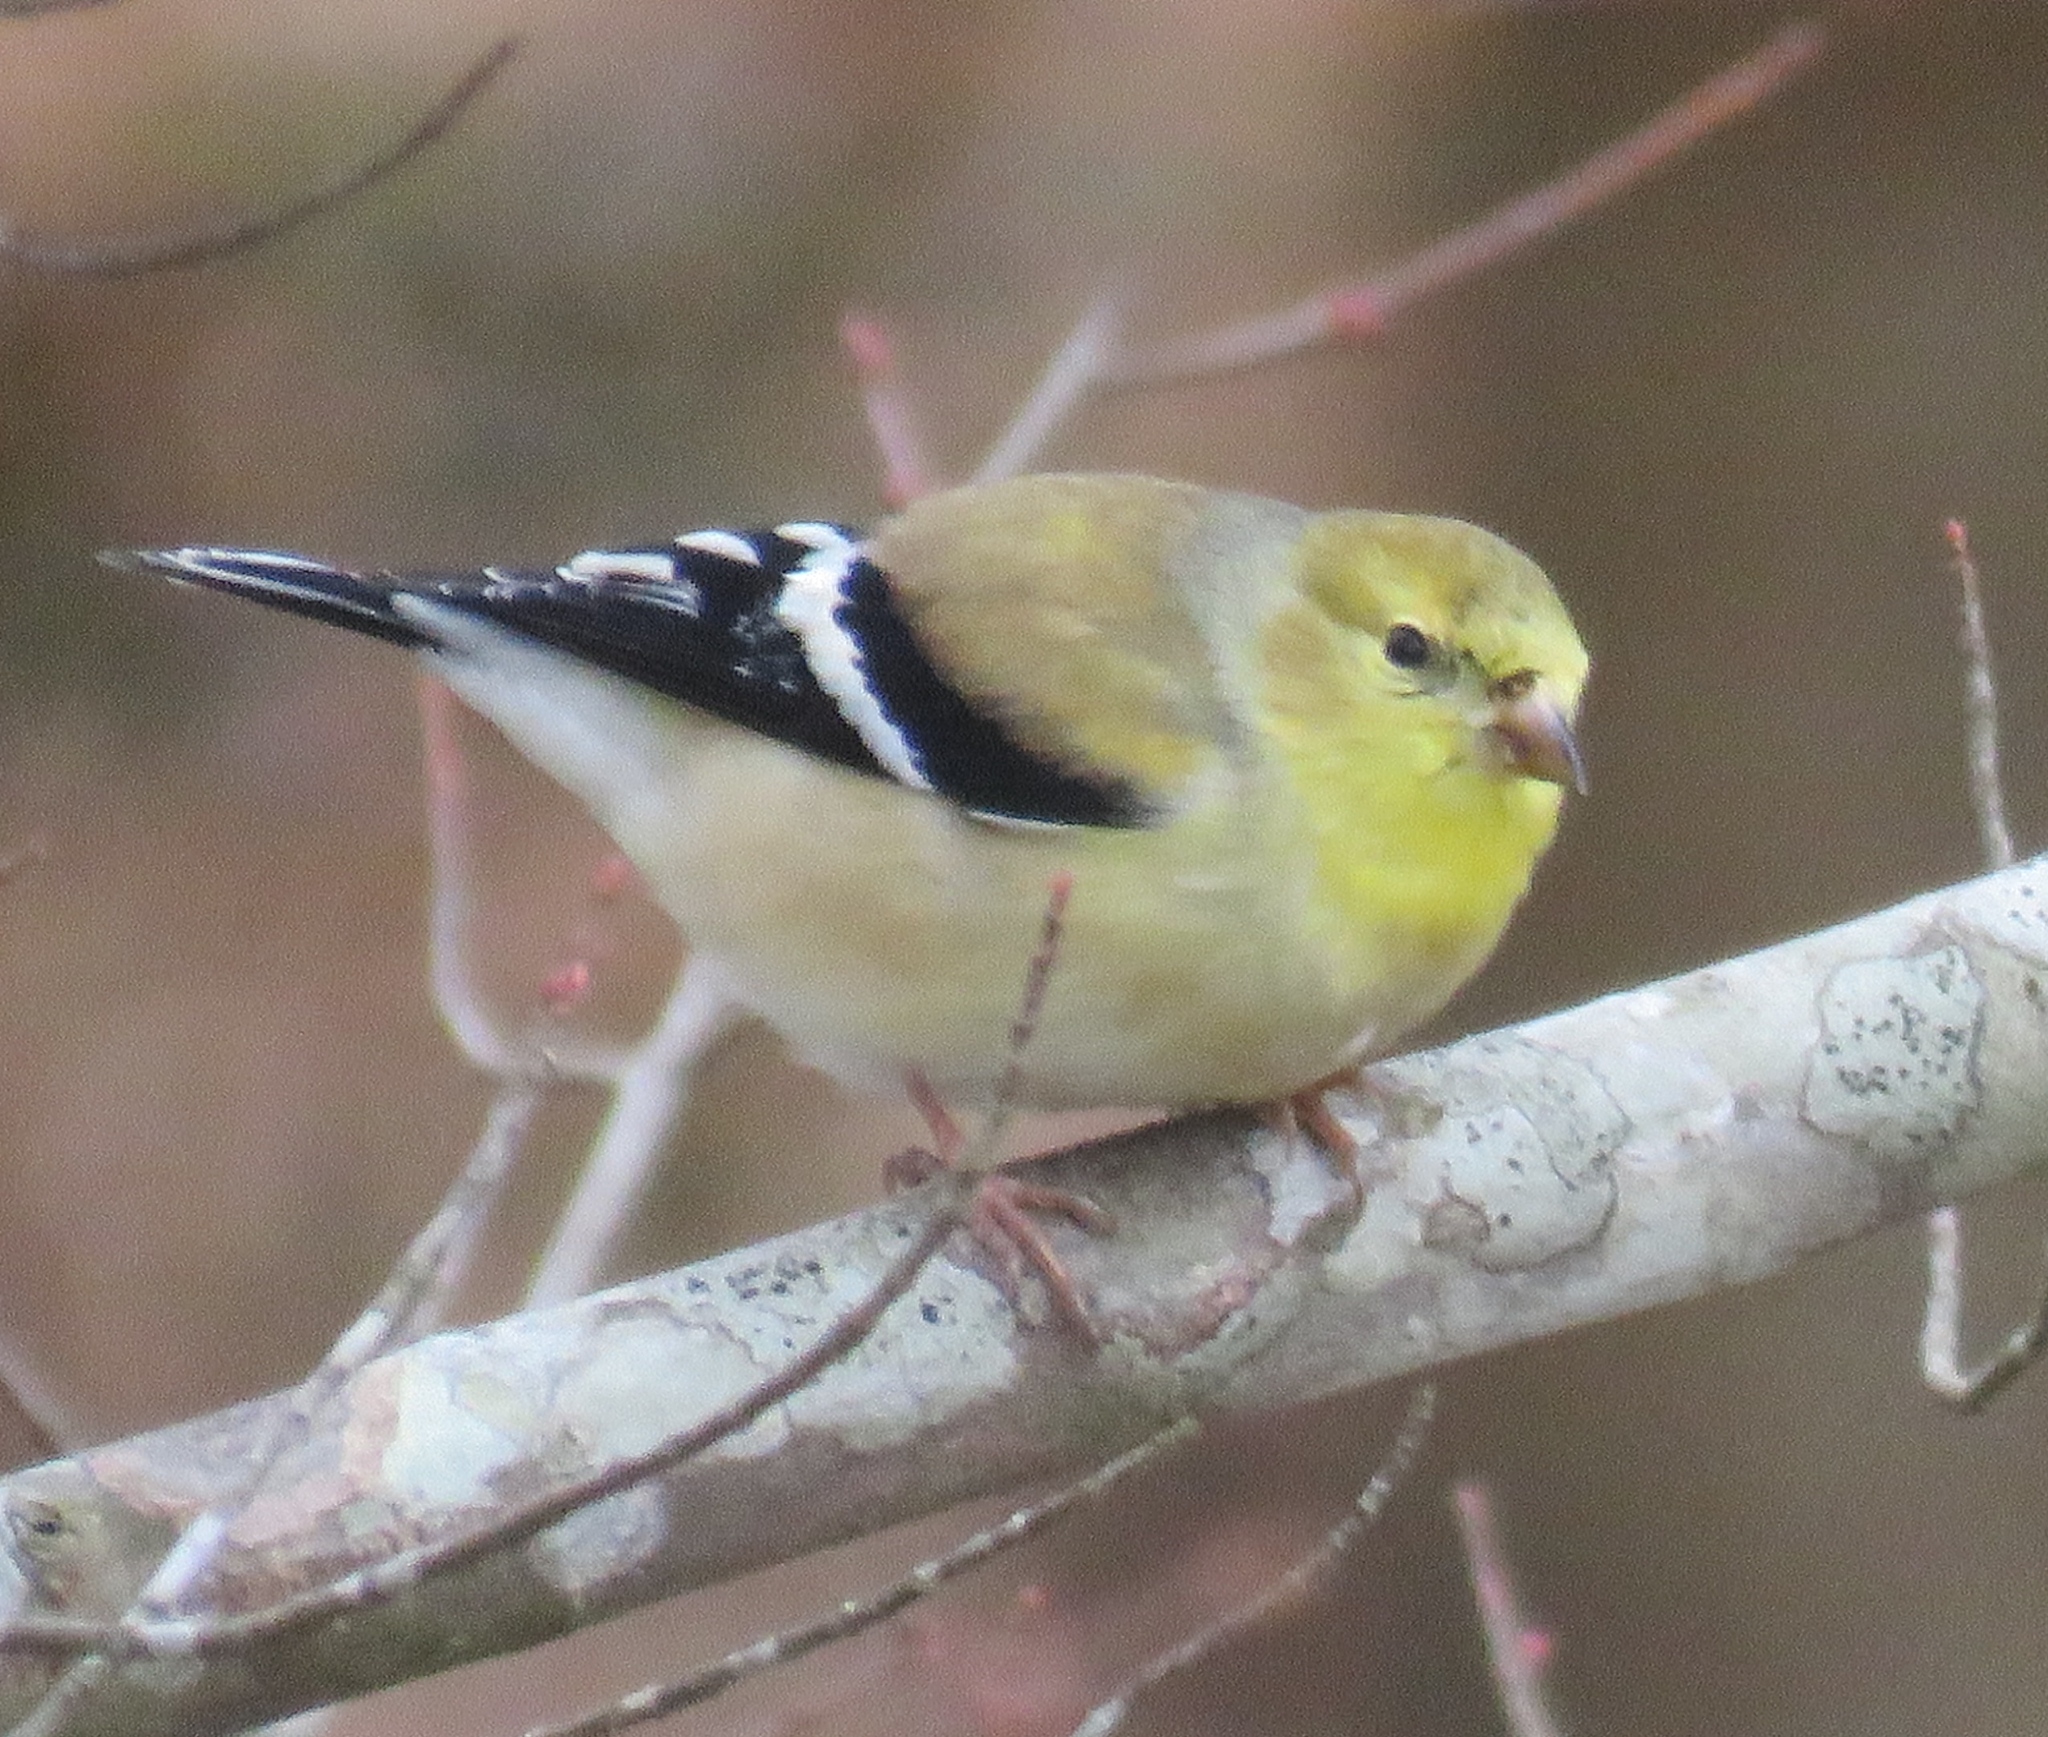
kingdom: Animalia
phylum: Chordata
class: Aves
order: Passeriformes
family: Fringillidae
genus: Spinus
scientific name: Spinus tristis
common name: American goldfinch
